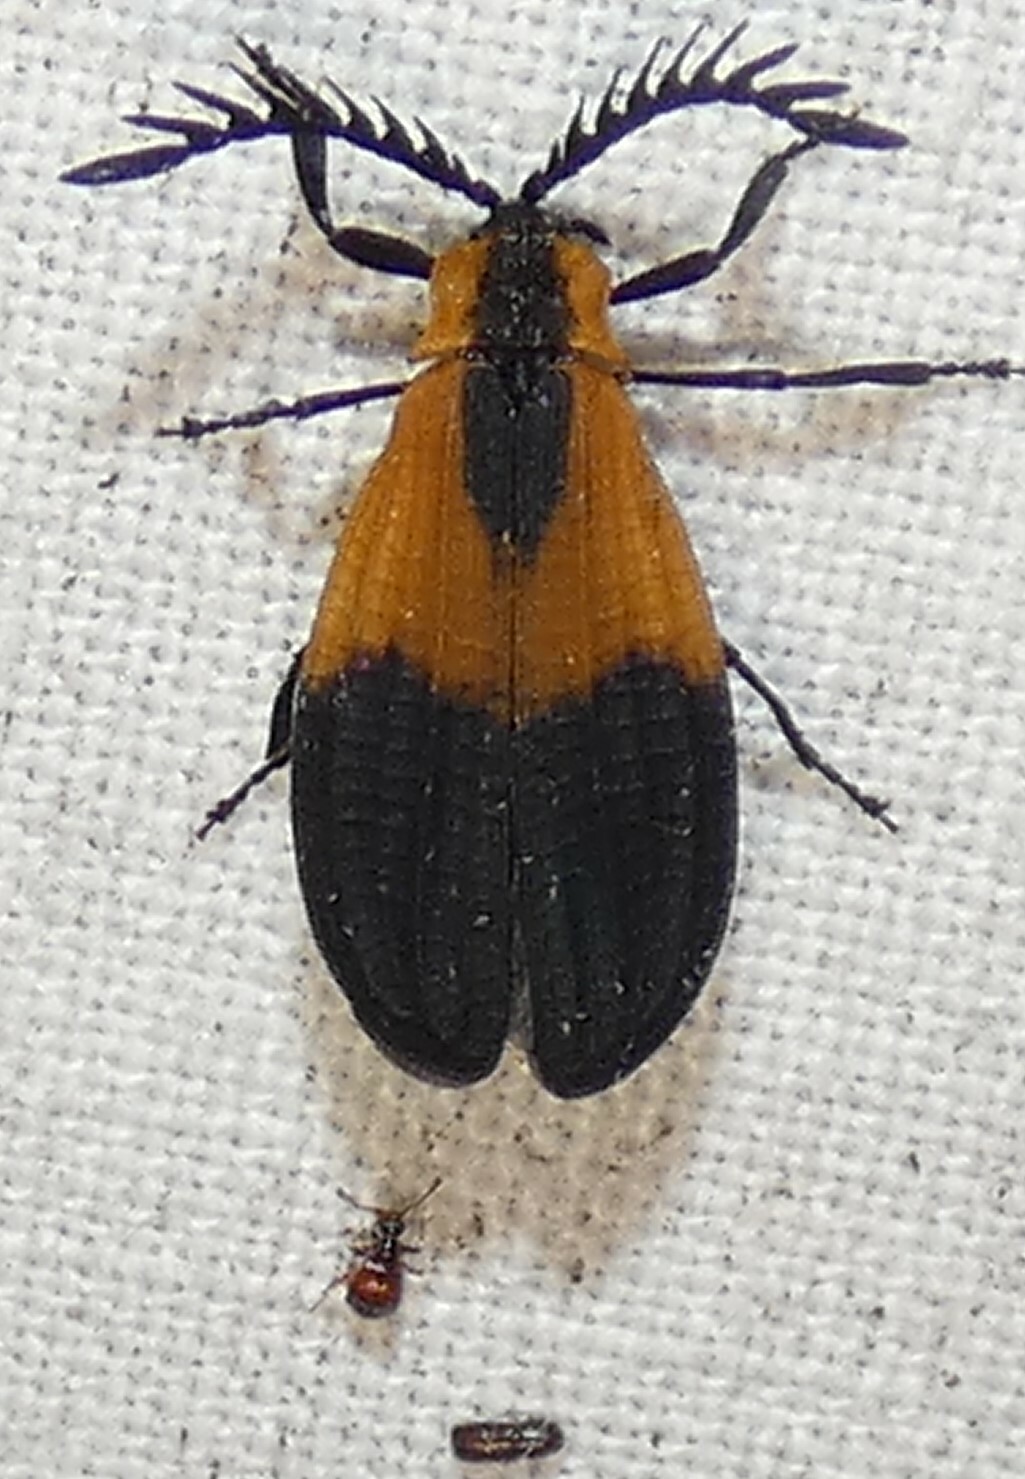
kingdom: Animalia
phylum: Arthropoda
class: Insecta
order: Coleoptera
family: Lycidae
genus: Caenia
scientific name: Caenia dimidiata
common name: Terminal net-winged beetle
